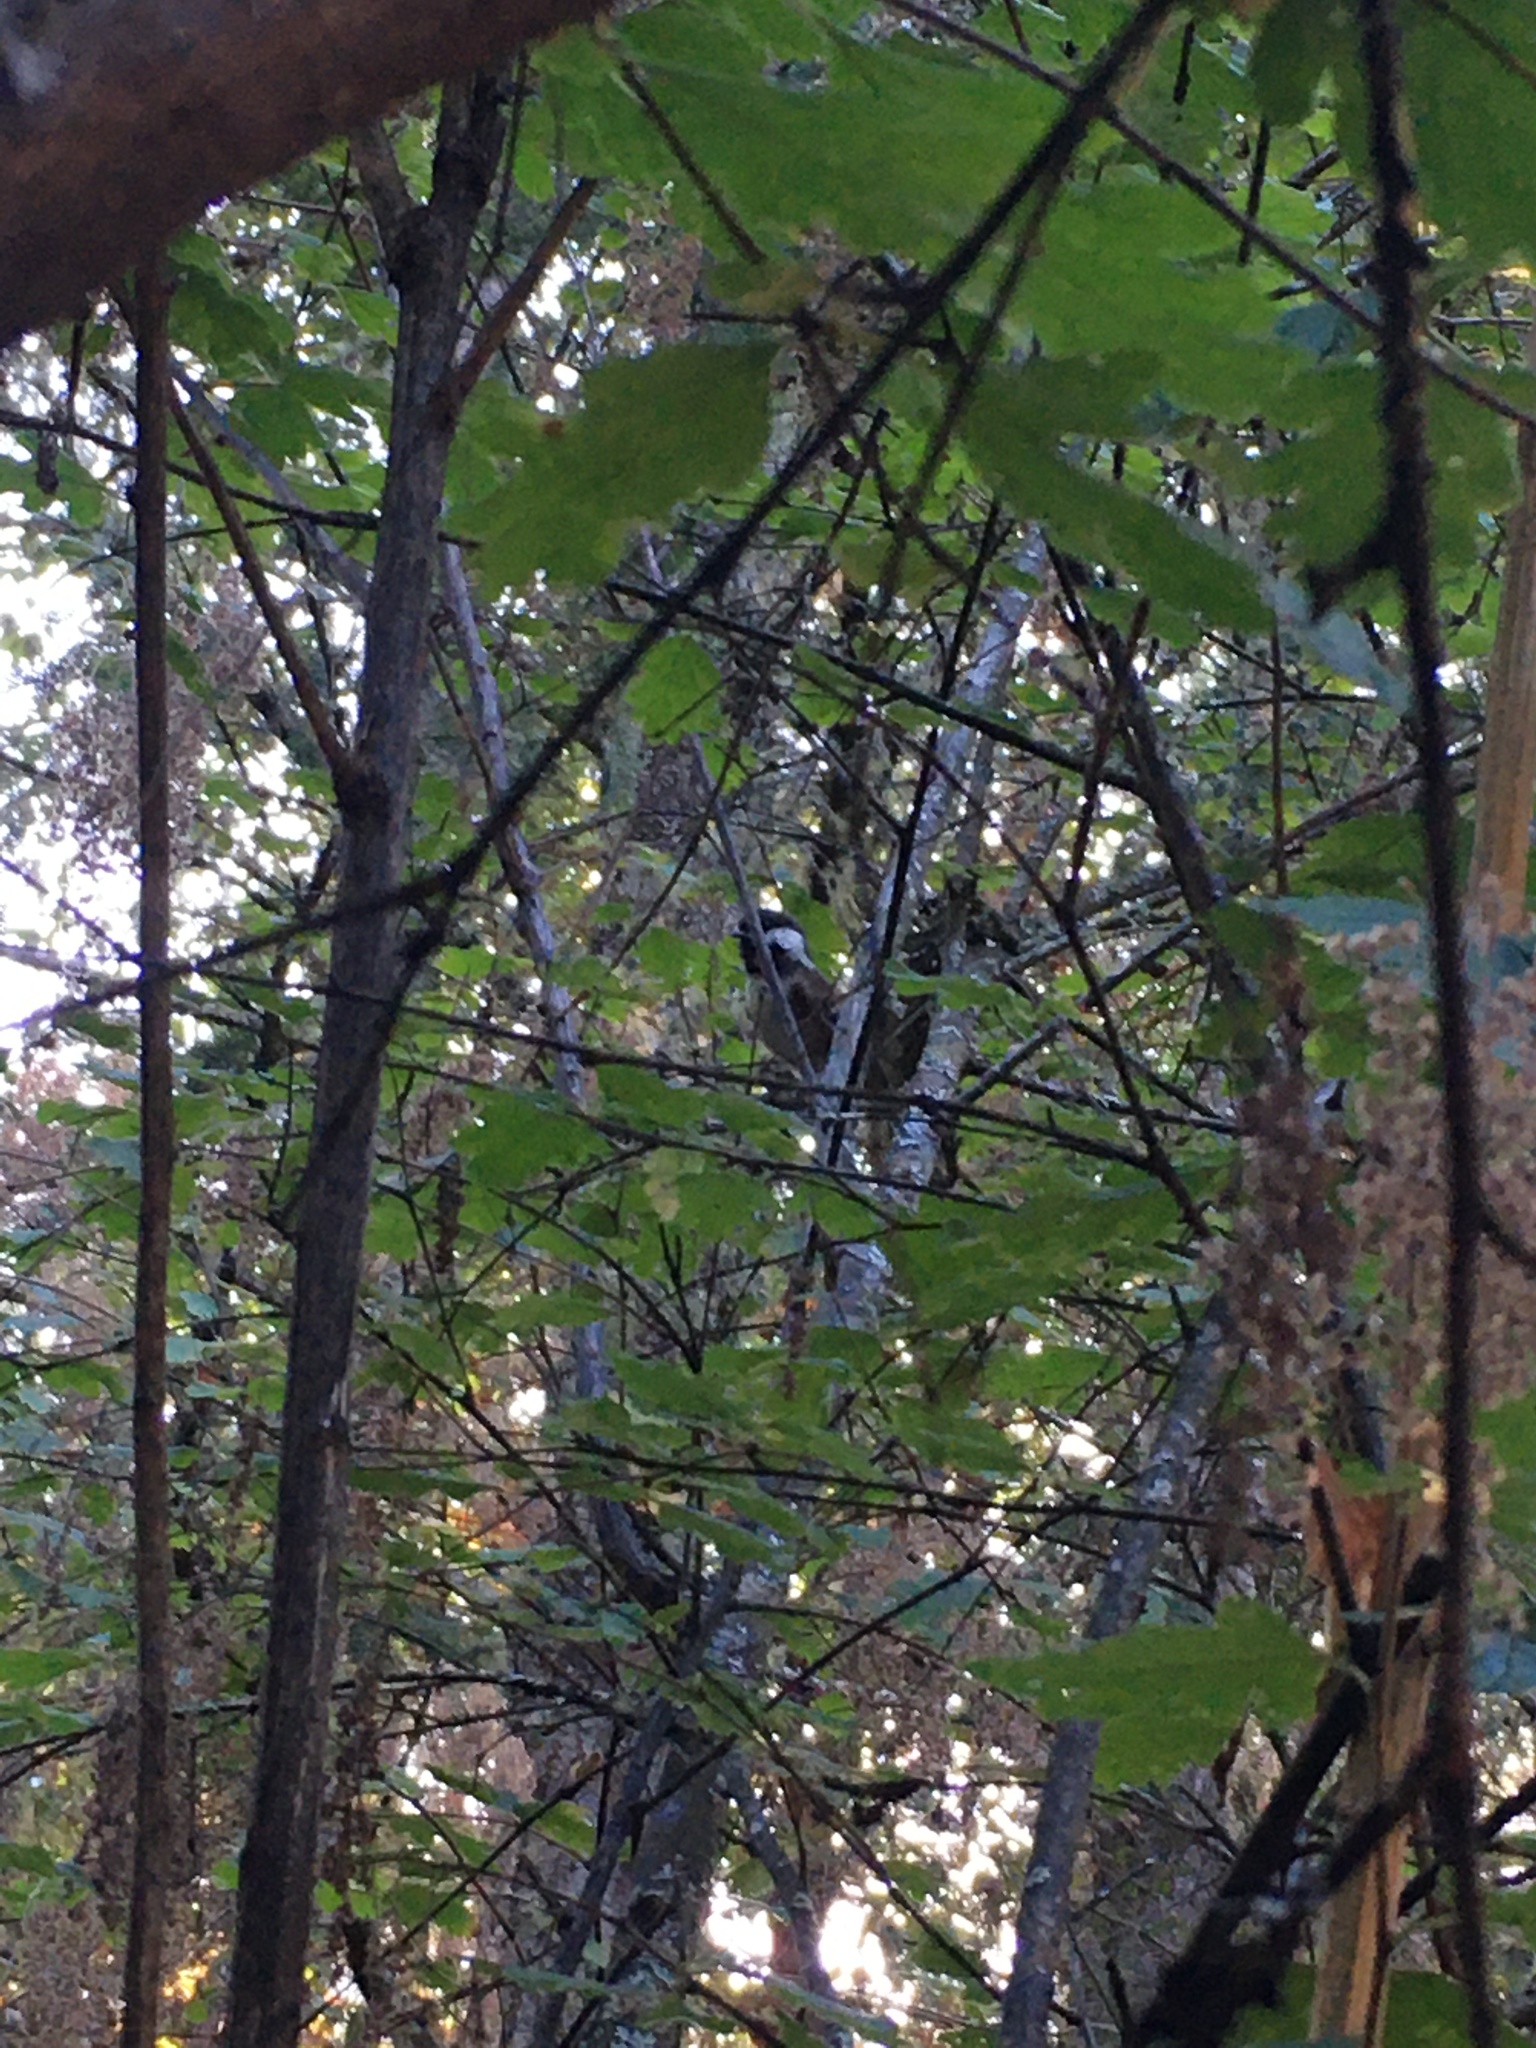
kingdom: Animalia
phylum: Chordata
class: Aves
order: Passeriformes
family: Paridae
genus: Poecile
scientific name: Poecile rufescens
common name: Chestnut-backed chickadee
